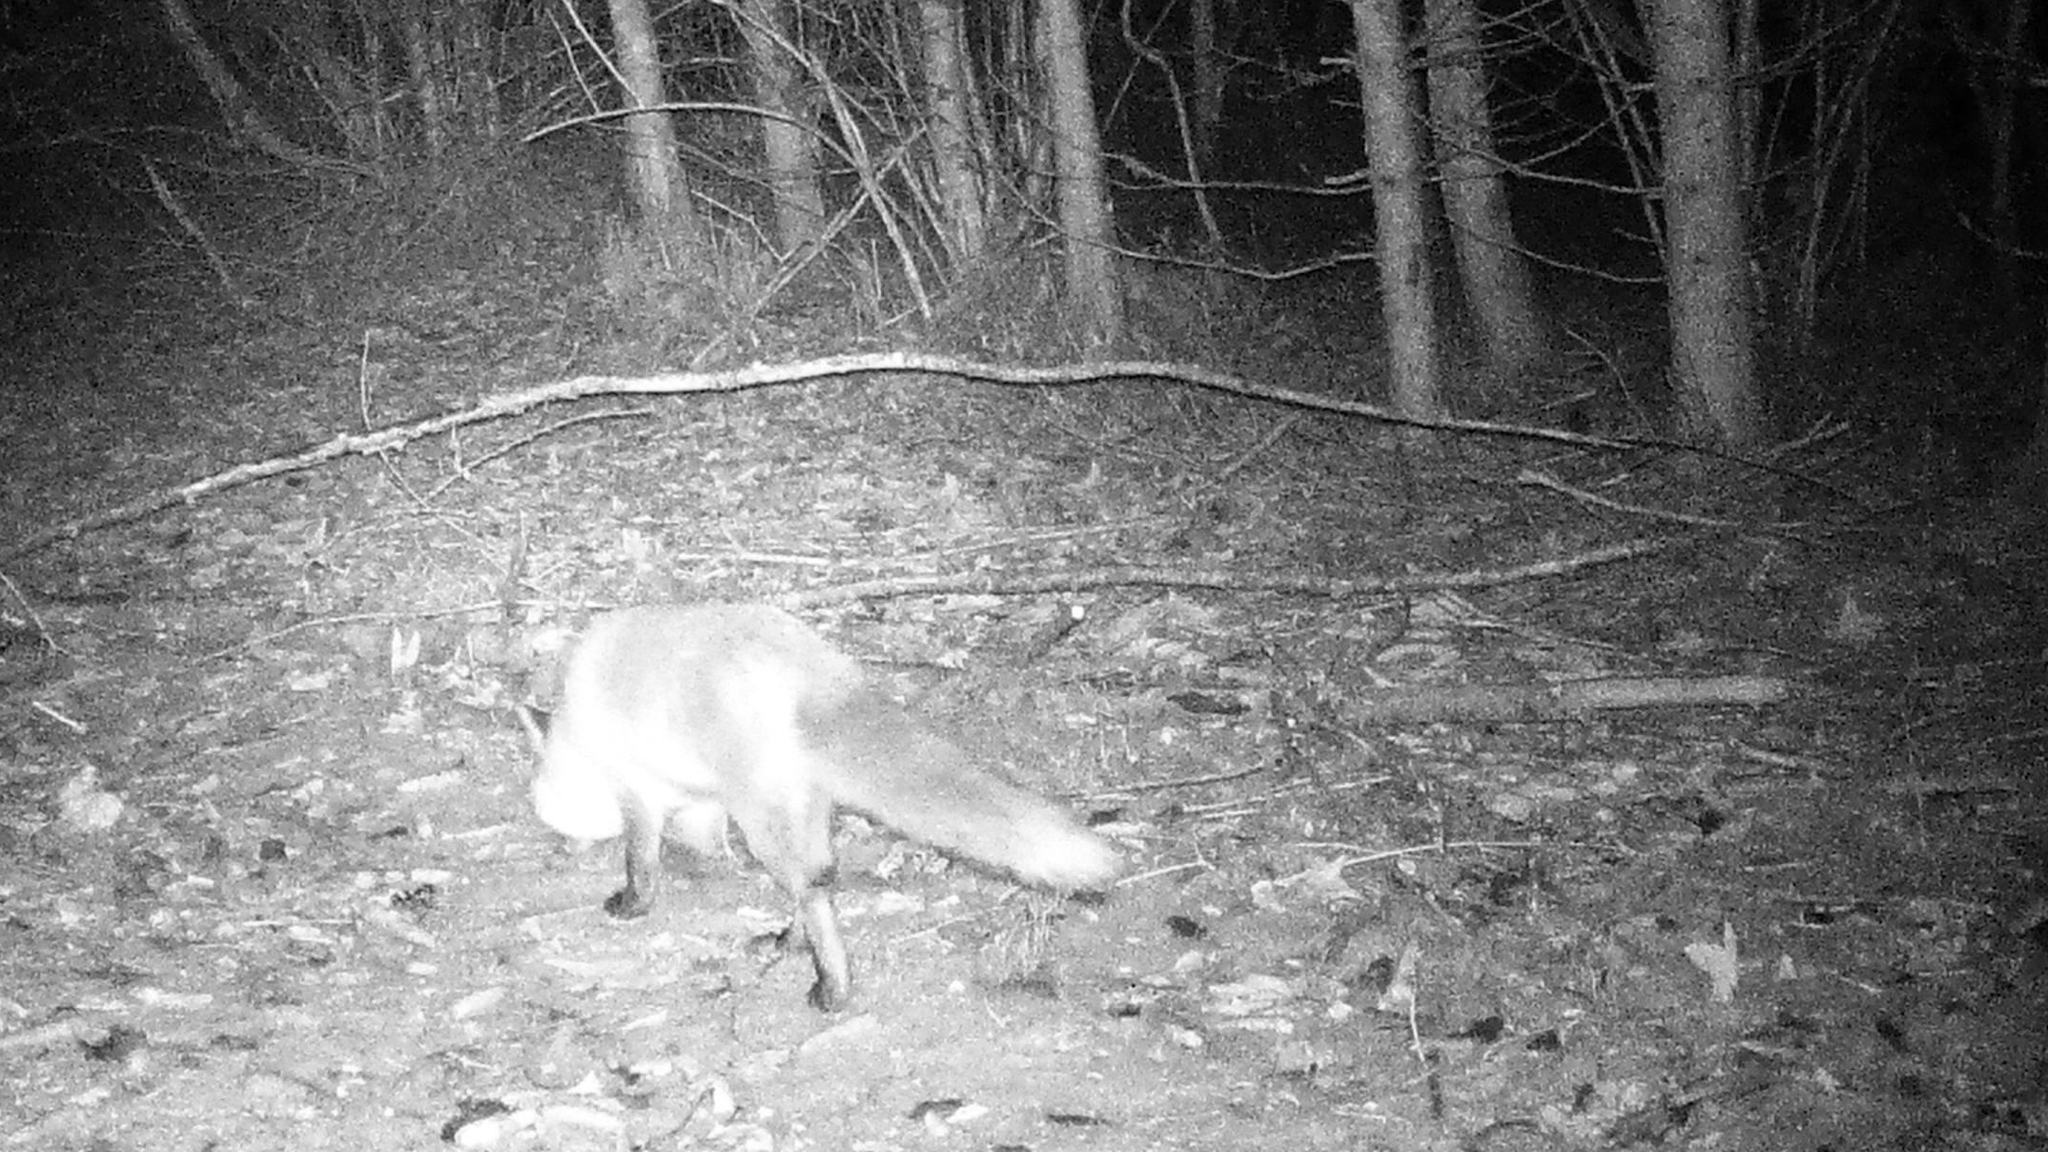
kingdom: Animalia
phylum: Chordata
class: Mammalia
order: Carnivora
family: Canidae
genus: Vulpes
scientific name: Vulpes vulpes
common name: Red fox
